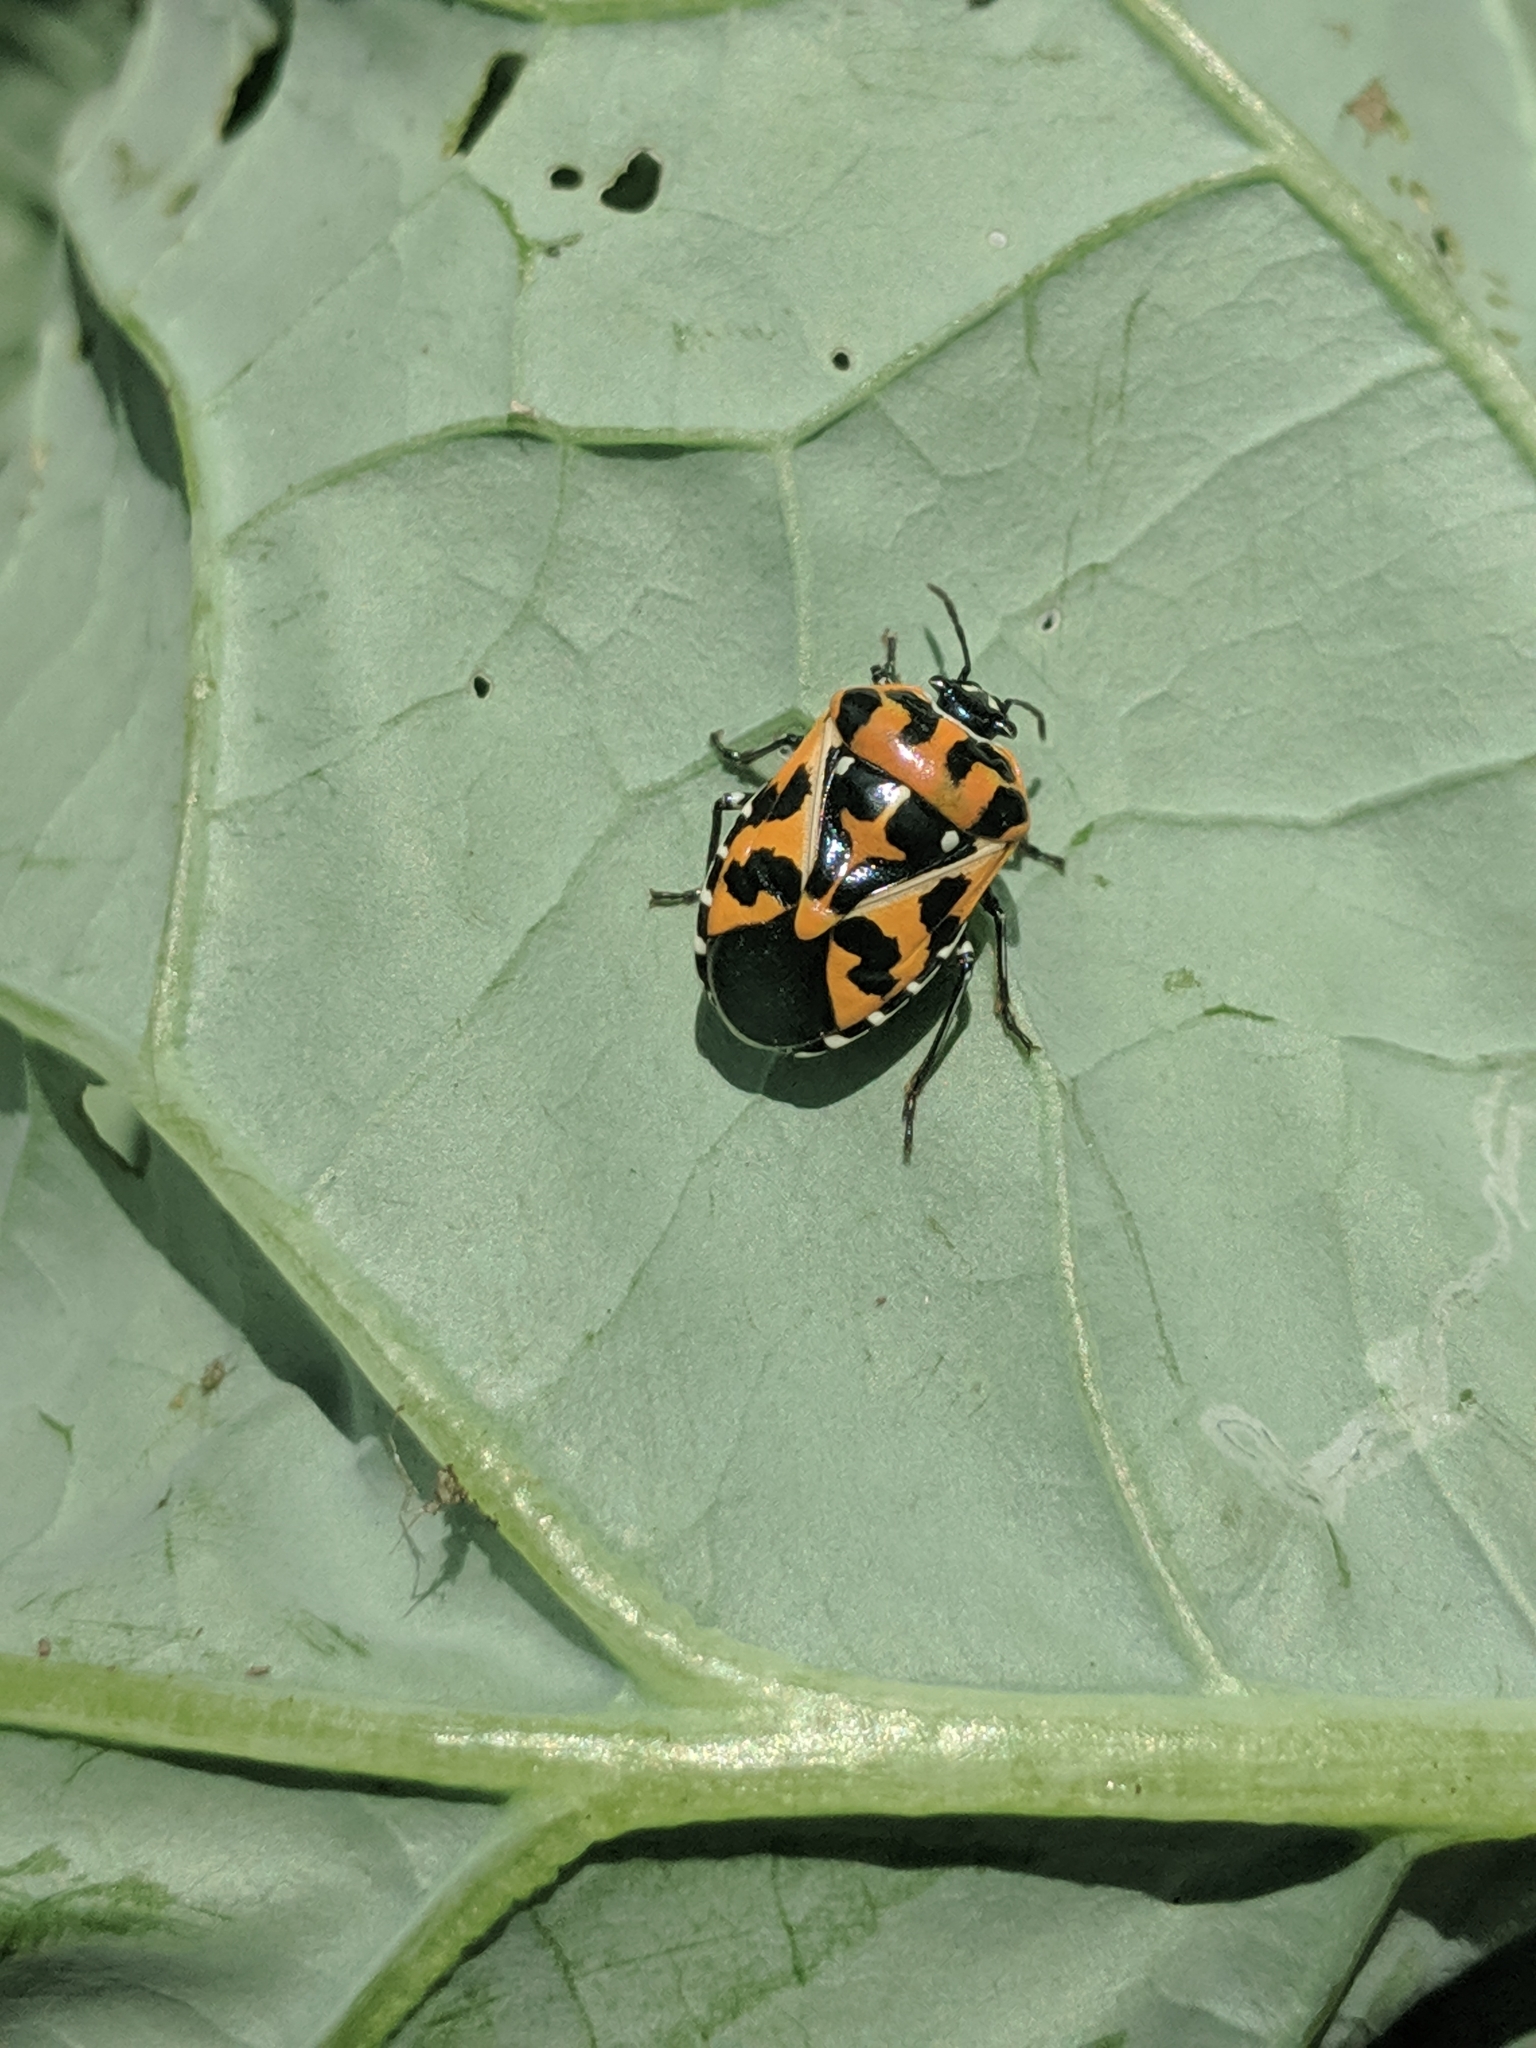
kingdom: Animalia
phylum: Arthropoda
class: Insecta
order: Hemiptera
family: Pentatomidae
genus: Murgantia
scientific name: Murgantia histrionica
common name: Harlequin bug
